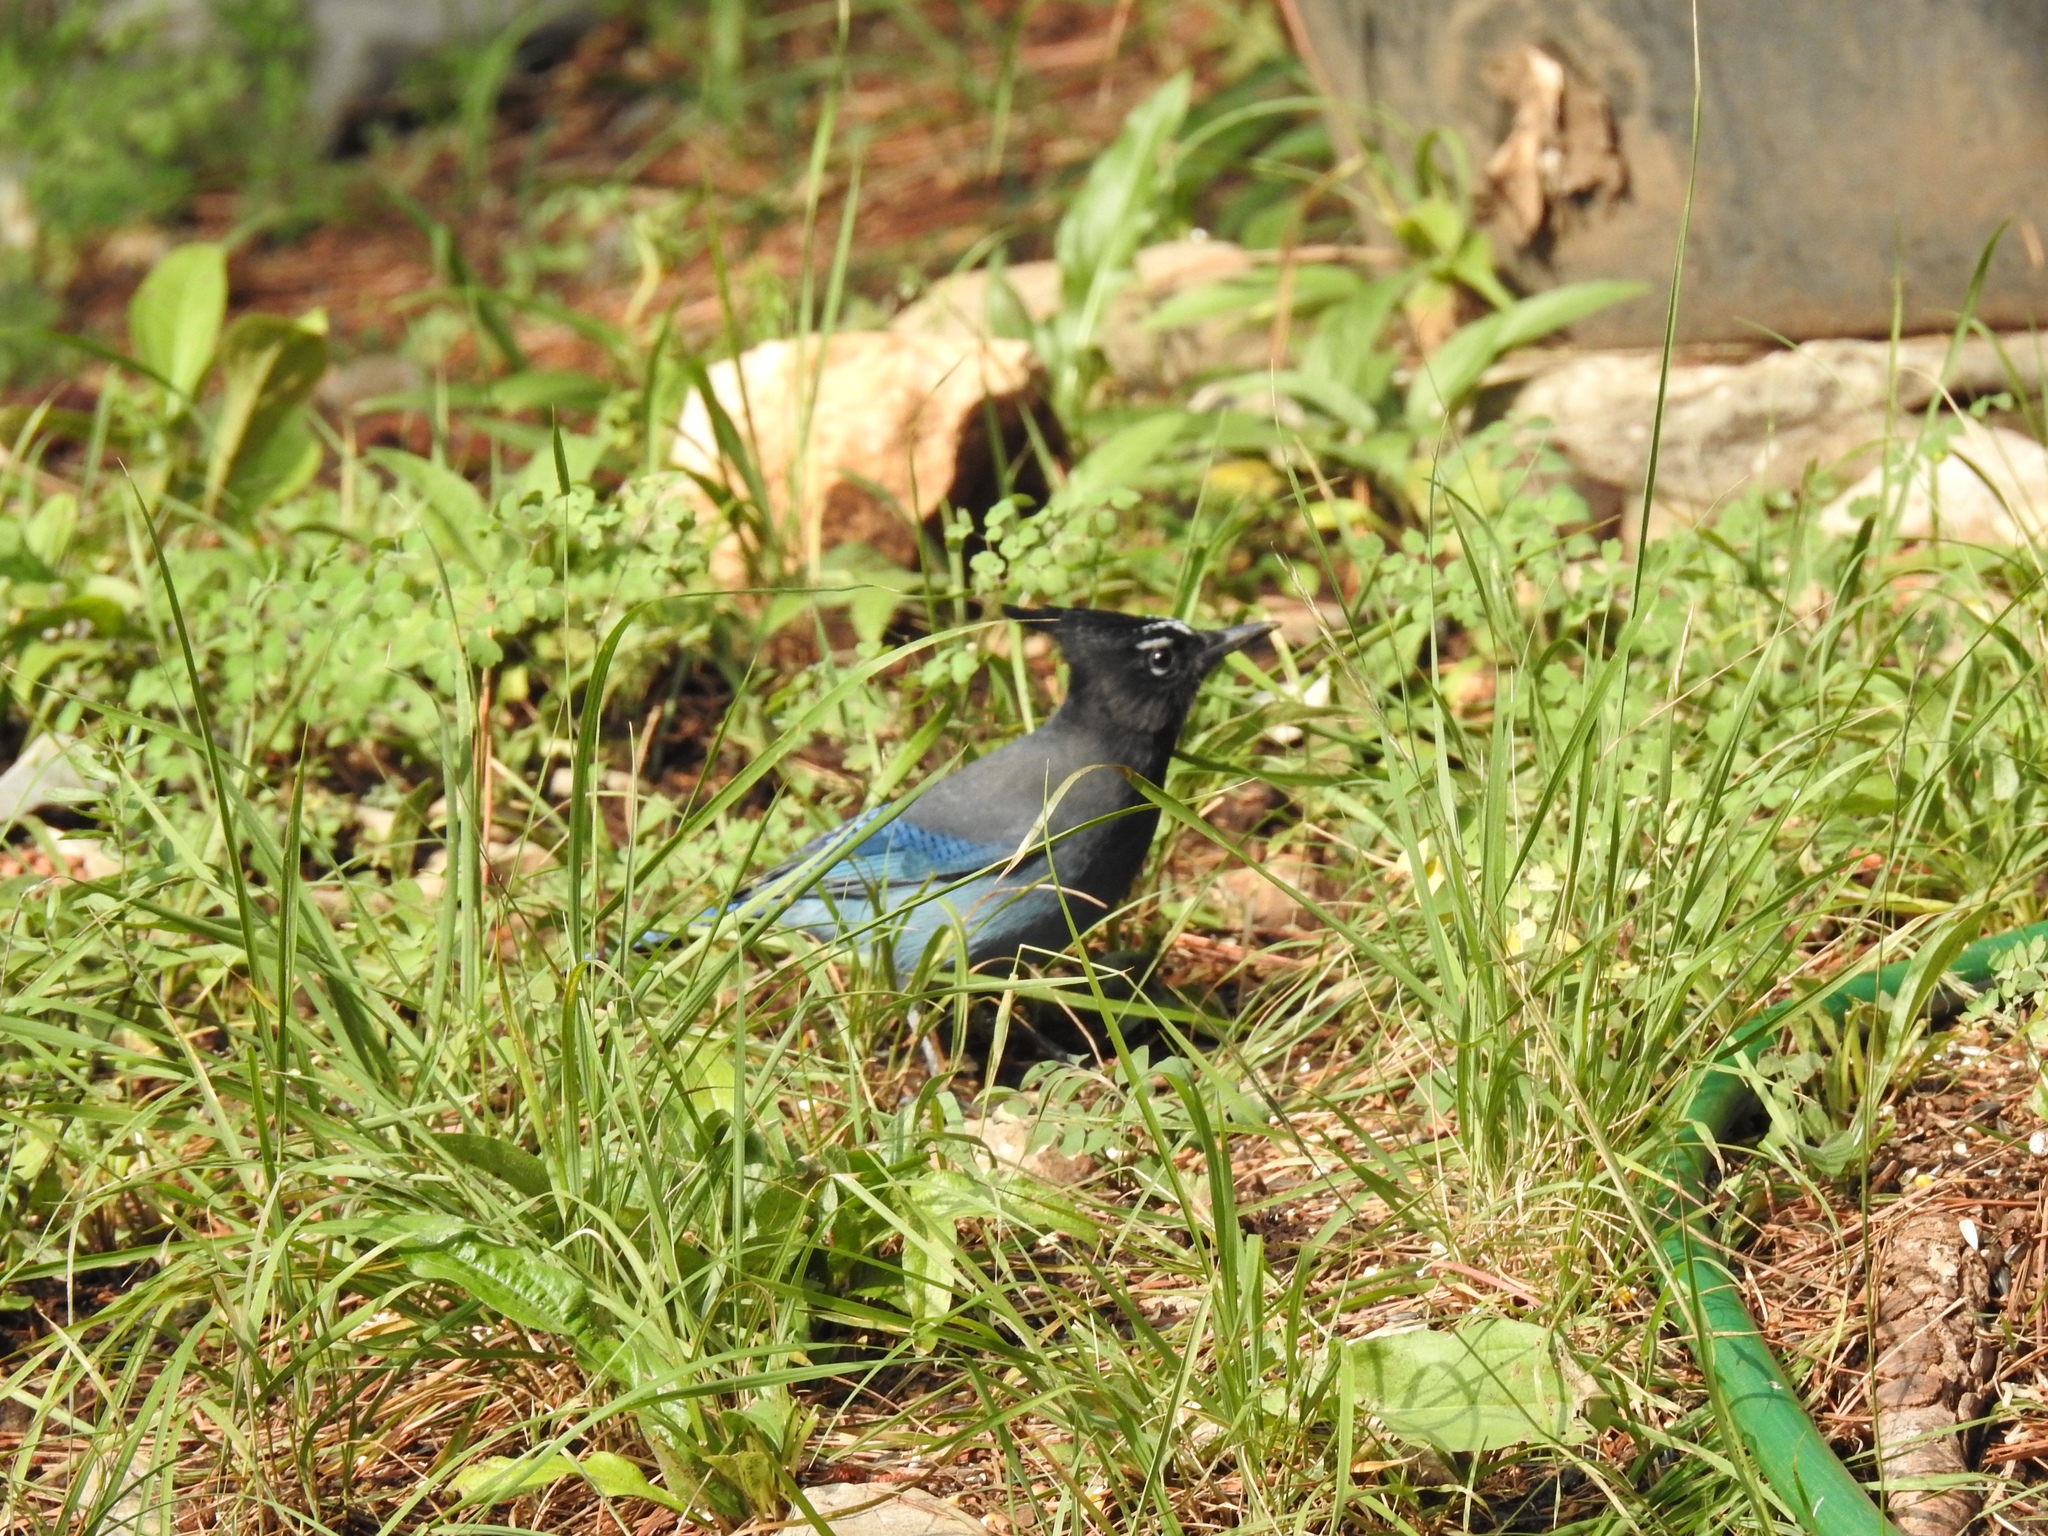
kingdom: Animalia
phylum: Chordata
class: Aves
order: Passeriformes
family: Corvidae
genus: Cyanocitta
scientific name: Cyanocitta stelleri
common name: Steller's jay
